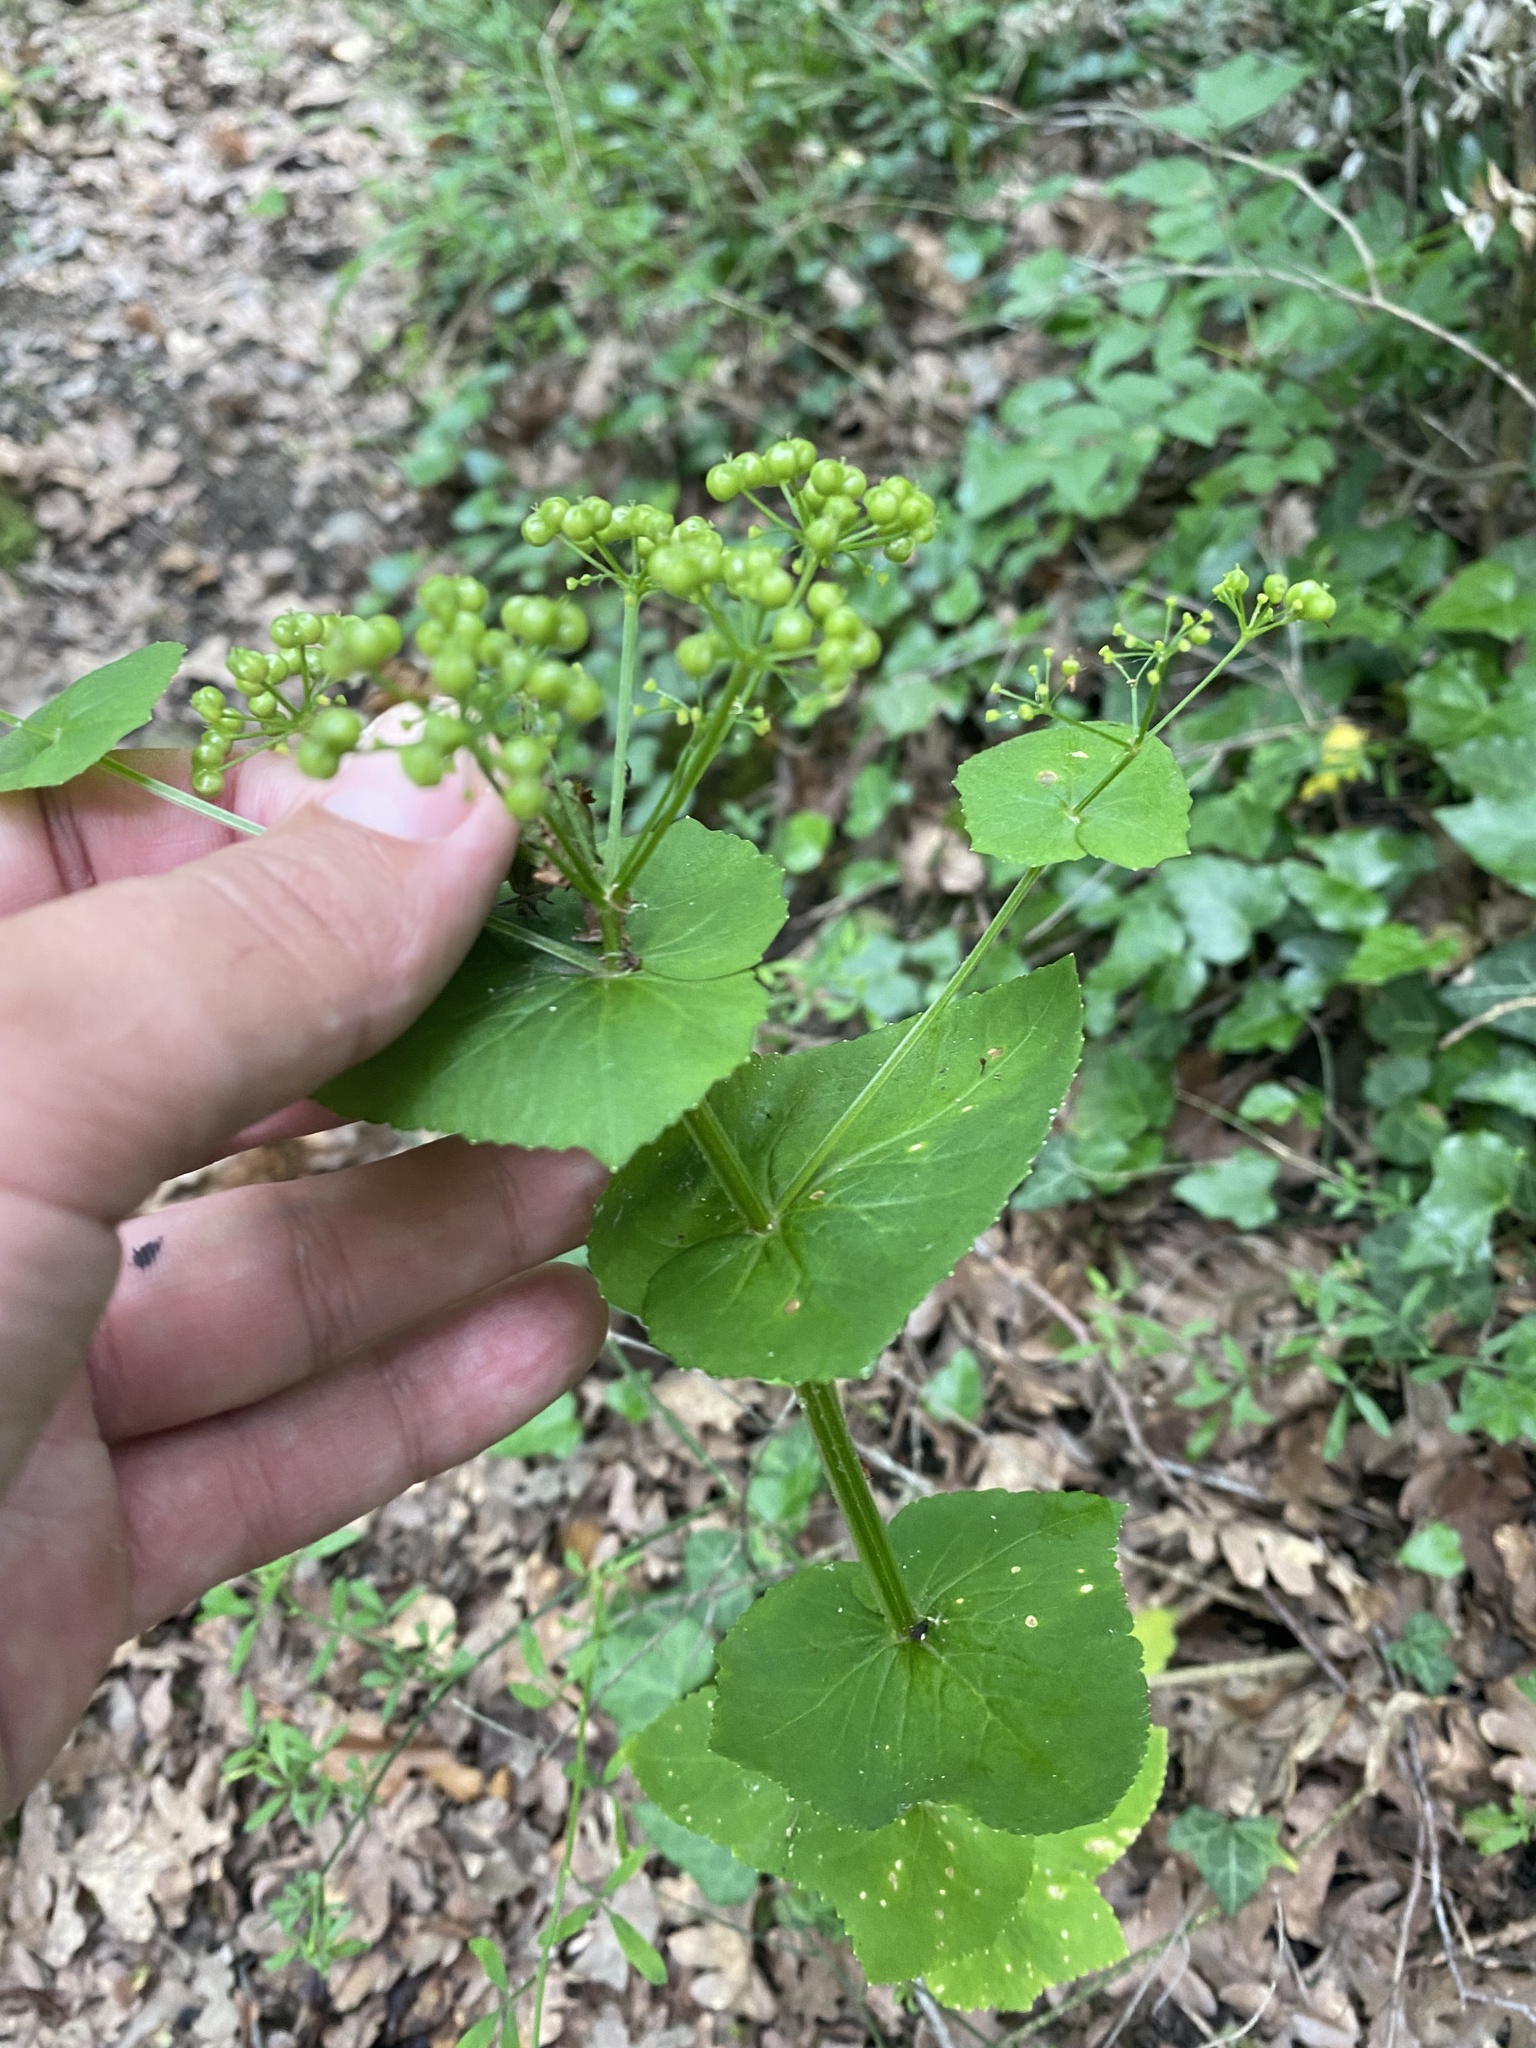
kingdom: Plantae
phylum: Tracheophyta
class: Magnoliopsida
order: Apiales
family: Apiaceae
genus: Smyrnium
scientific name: Smyrnium perfoliatum
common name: Perfoliate alexanders
